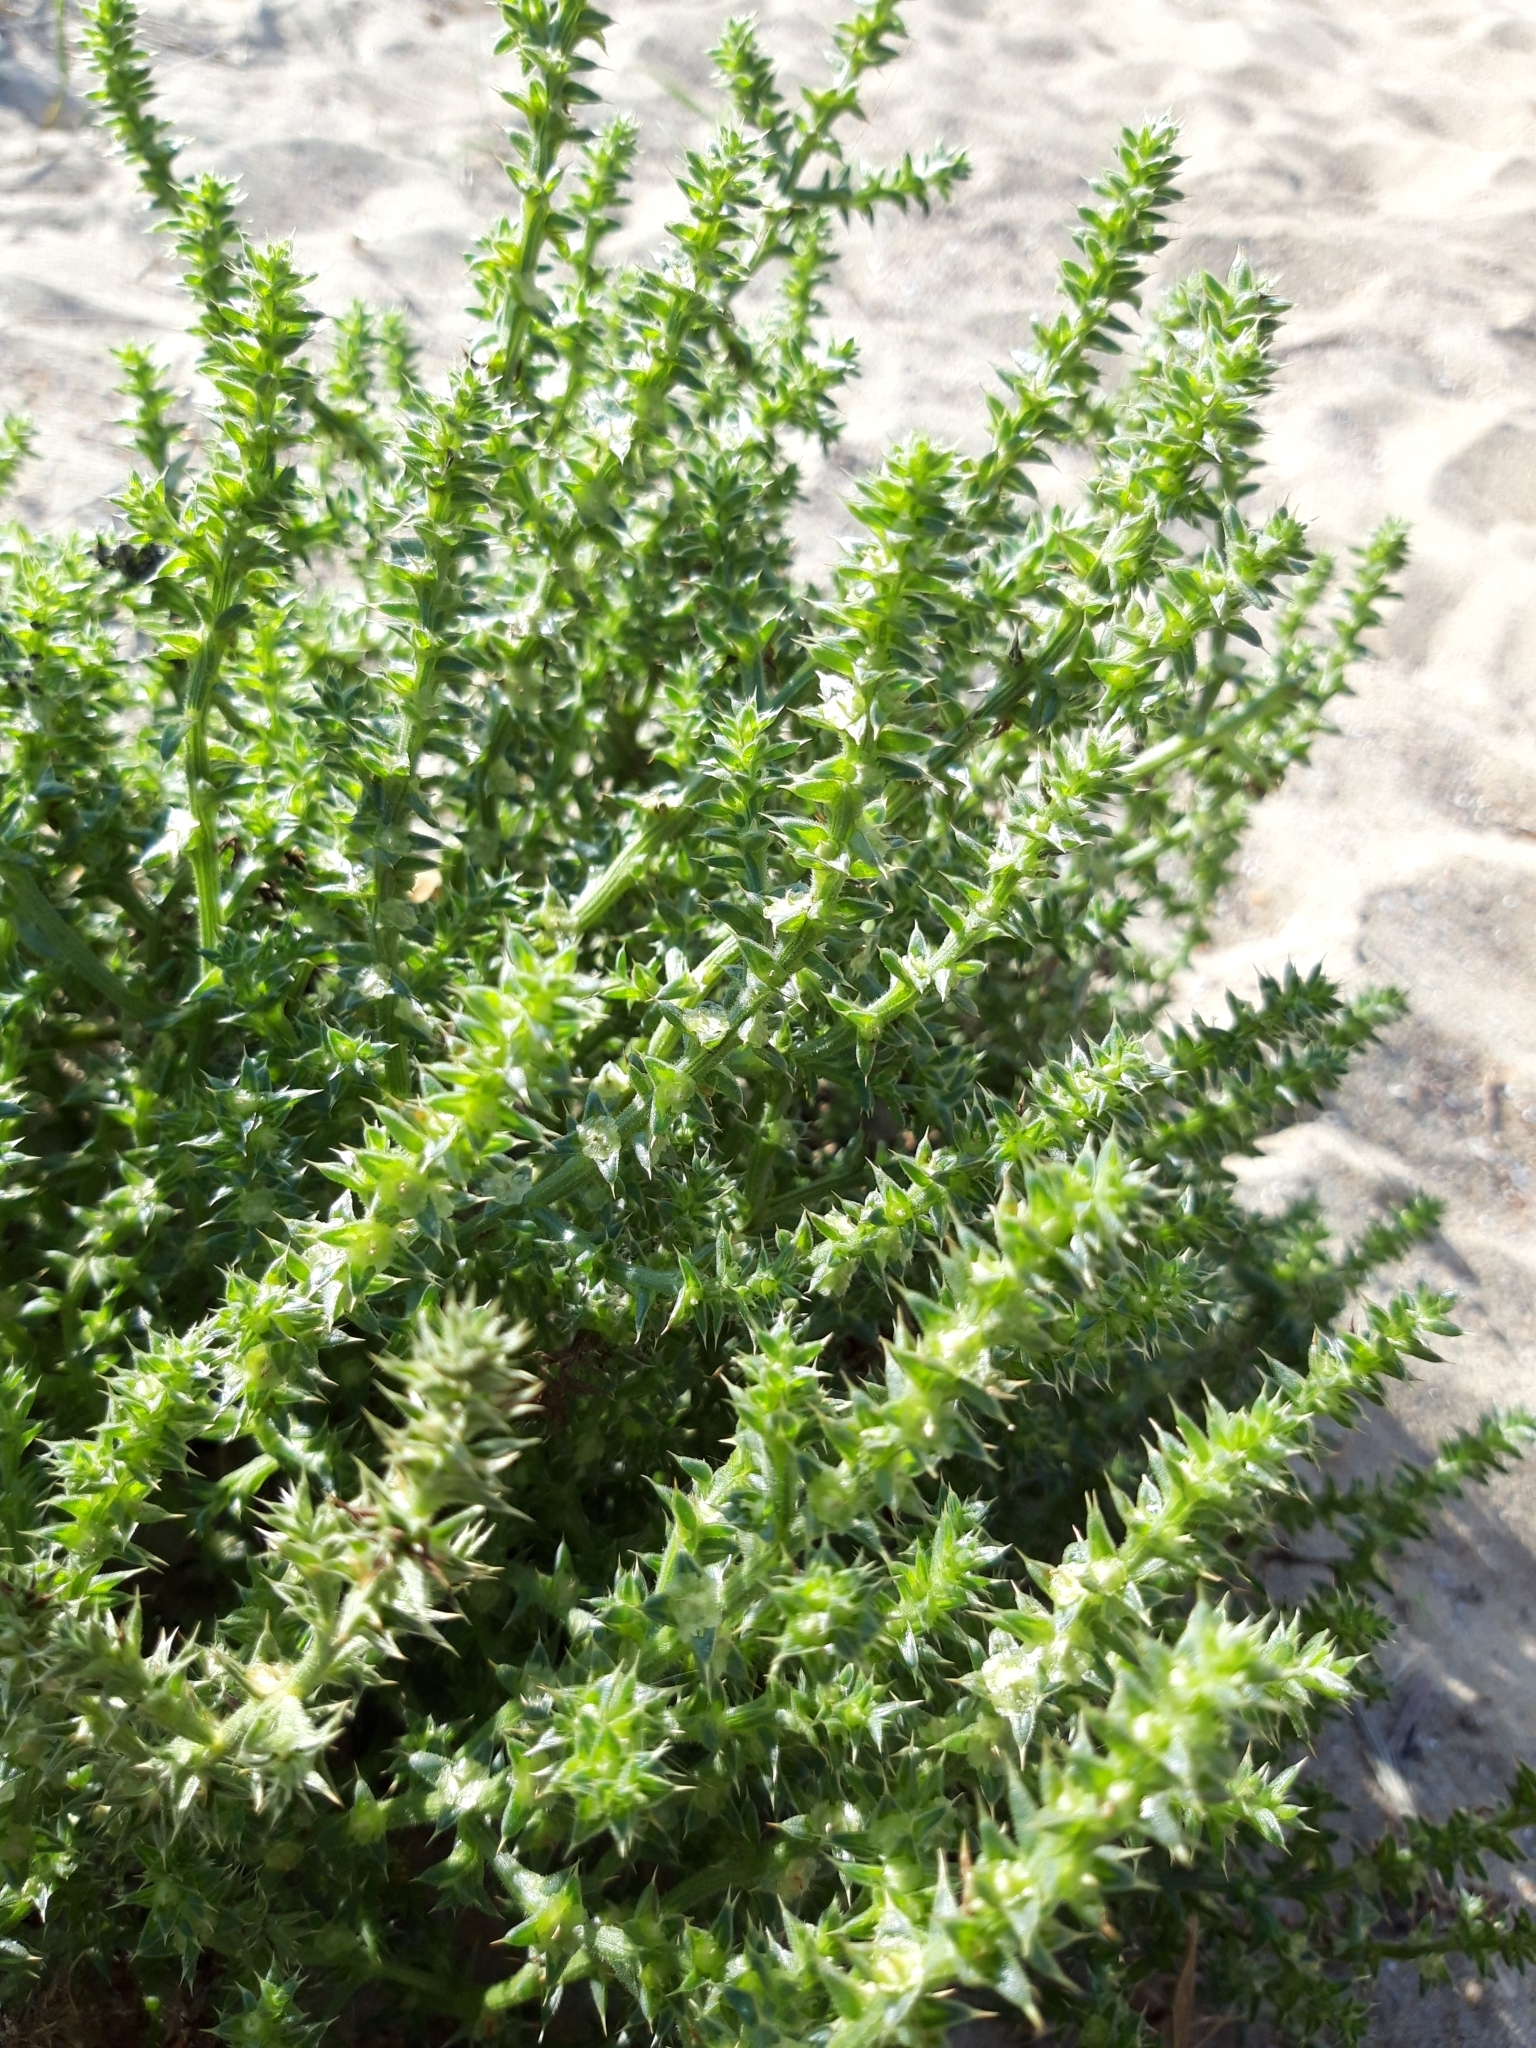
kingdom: Plantae
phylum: Tracheophyta
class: Magnoliopsida
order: Caryophyllales
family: Amaranthaceae
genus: Salsola
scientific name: Salsola kali
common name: Saltwort
